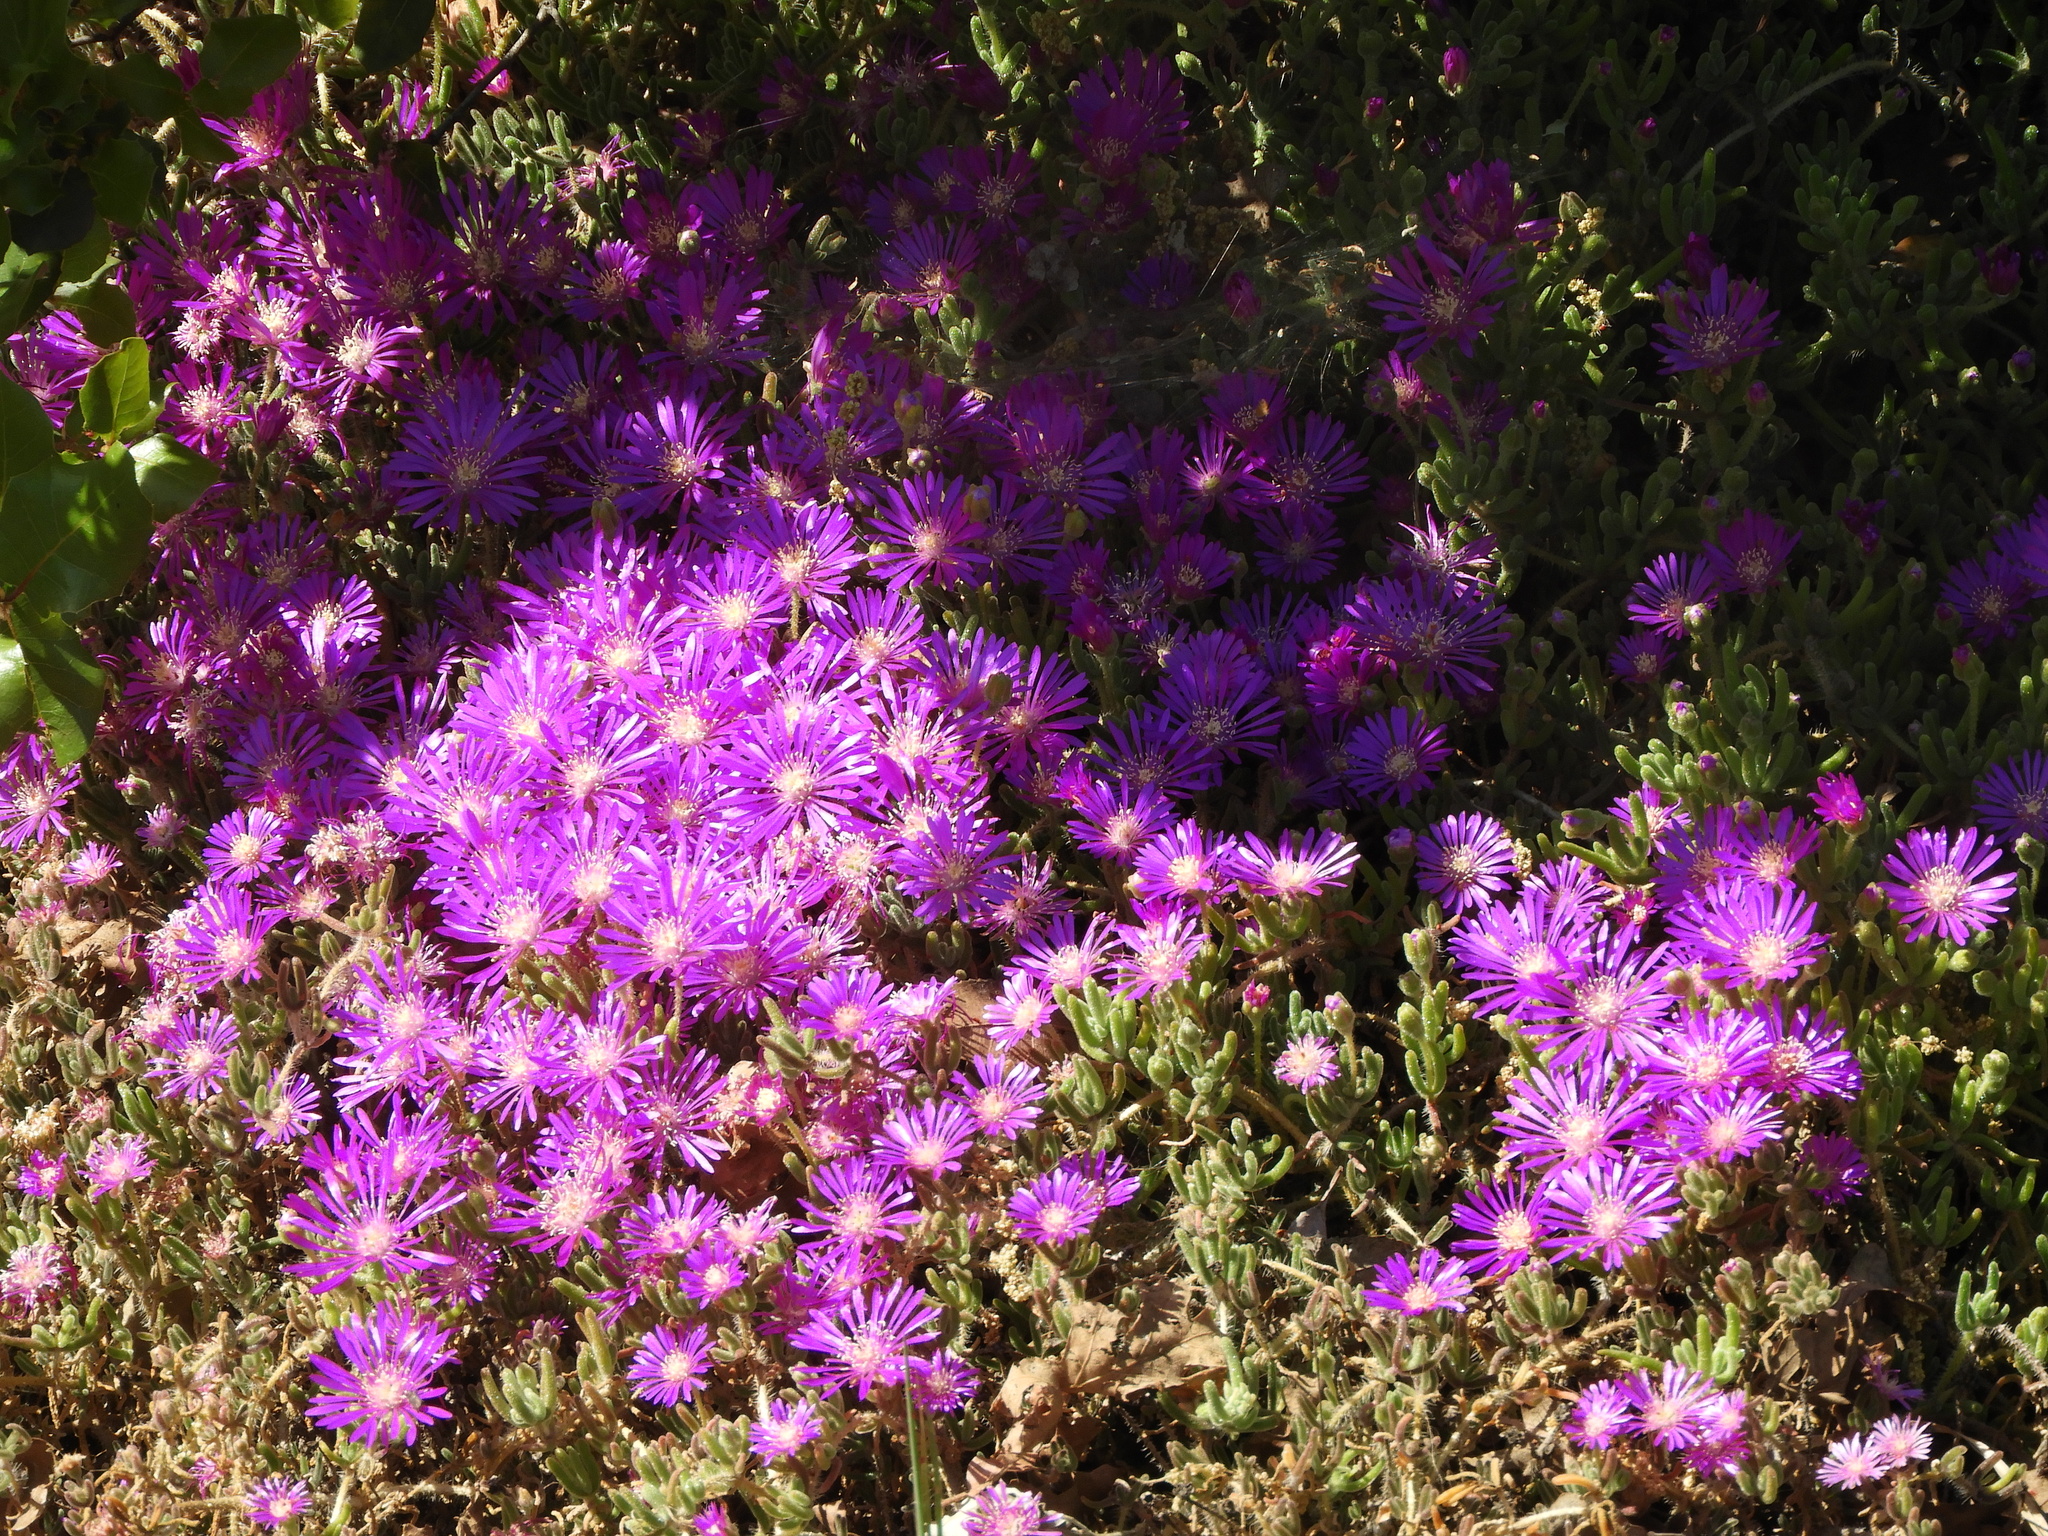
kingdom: Plantae
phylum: Tracheophyta
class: Magnoliopsida
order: Caryophyllales
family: Aizoaceae
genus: Drosanthemum
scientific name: Drosanthemum floribundum
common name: Pale dewplant
